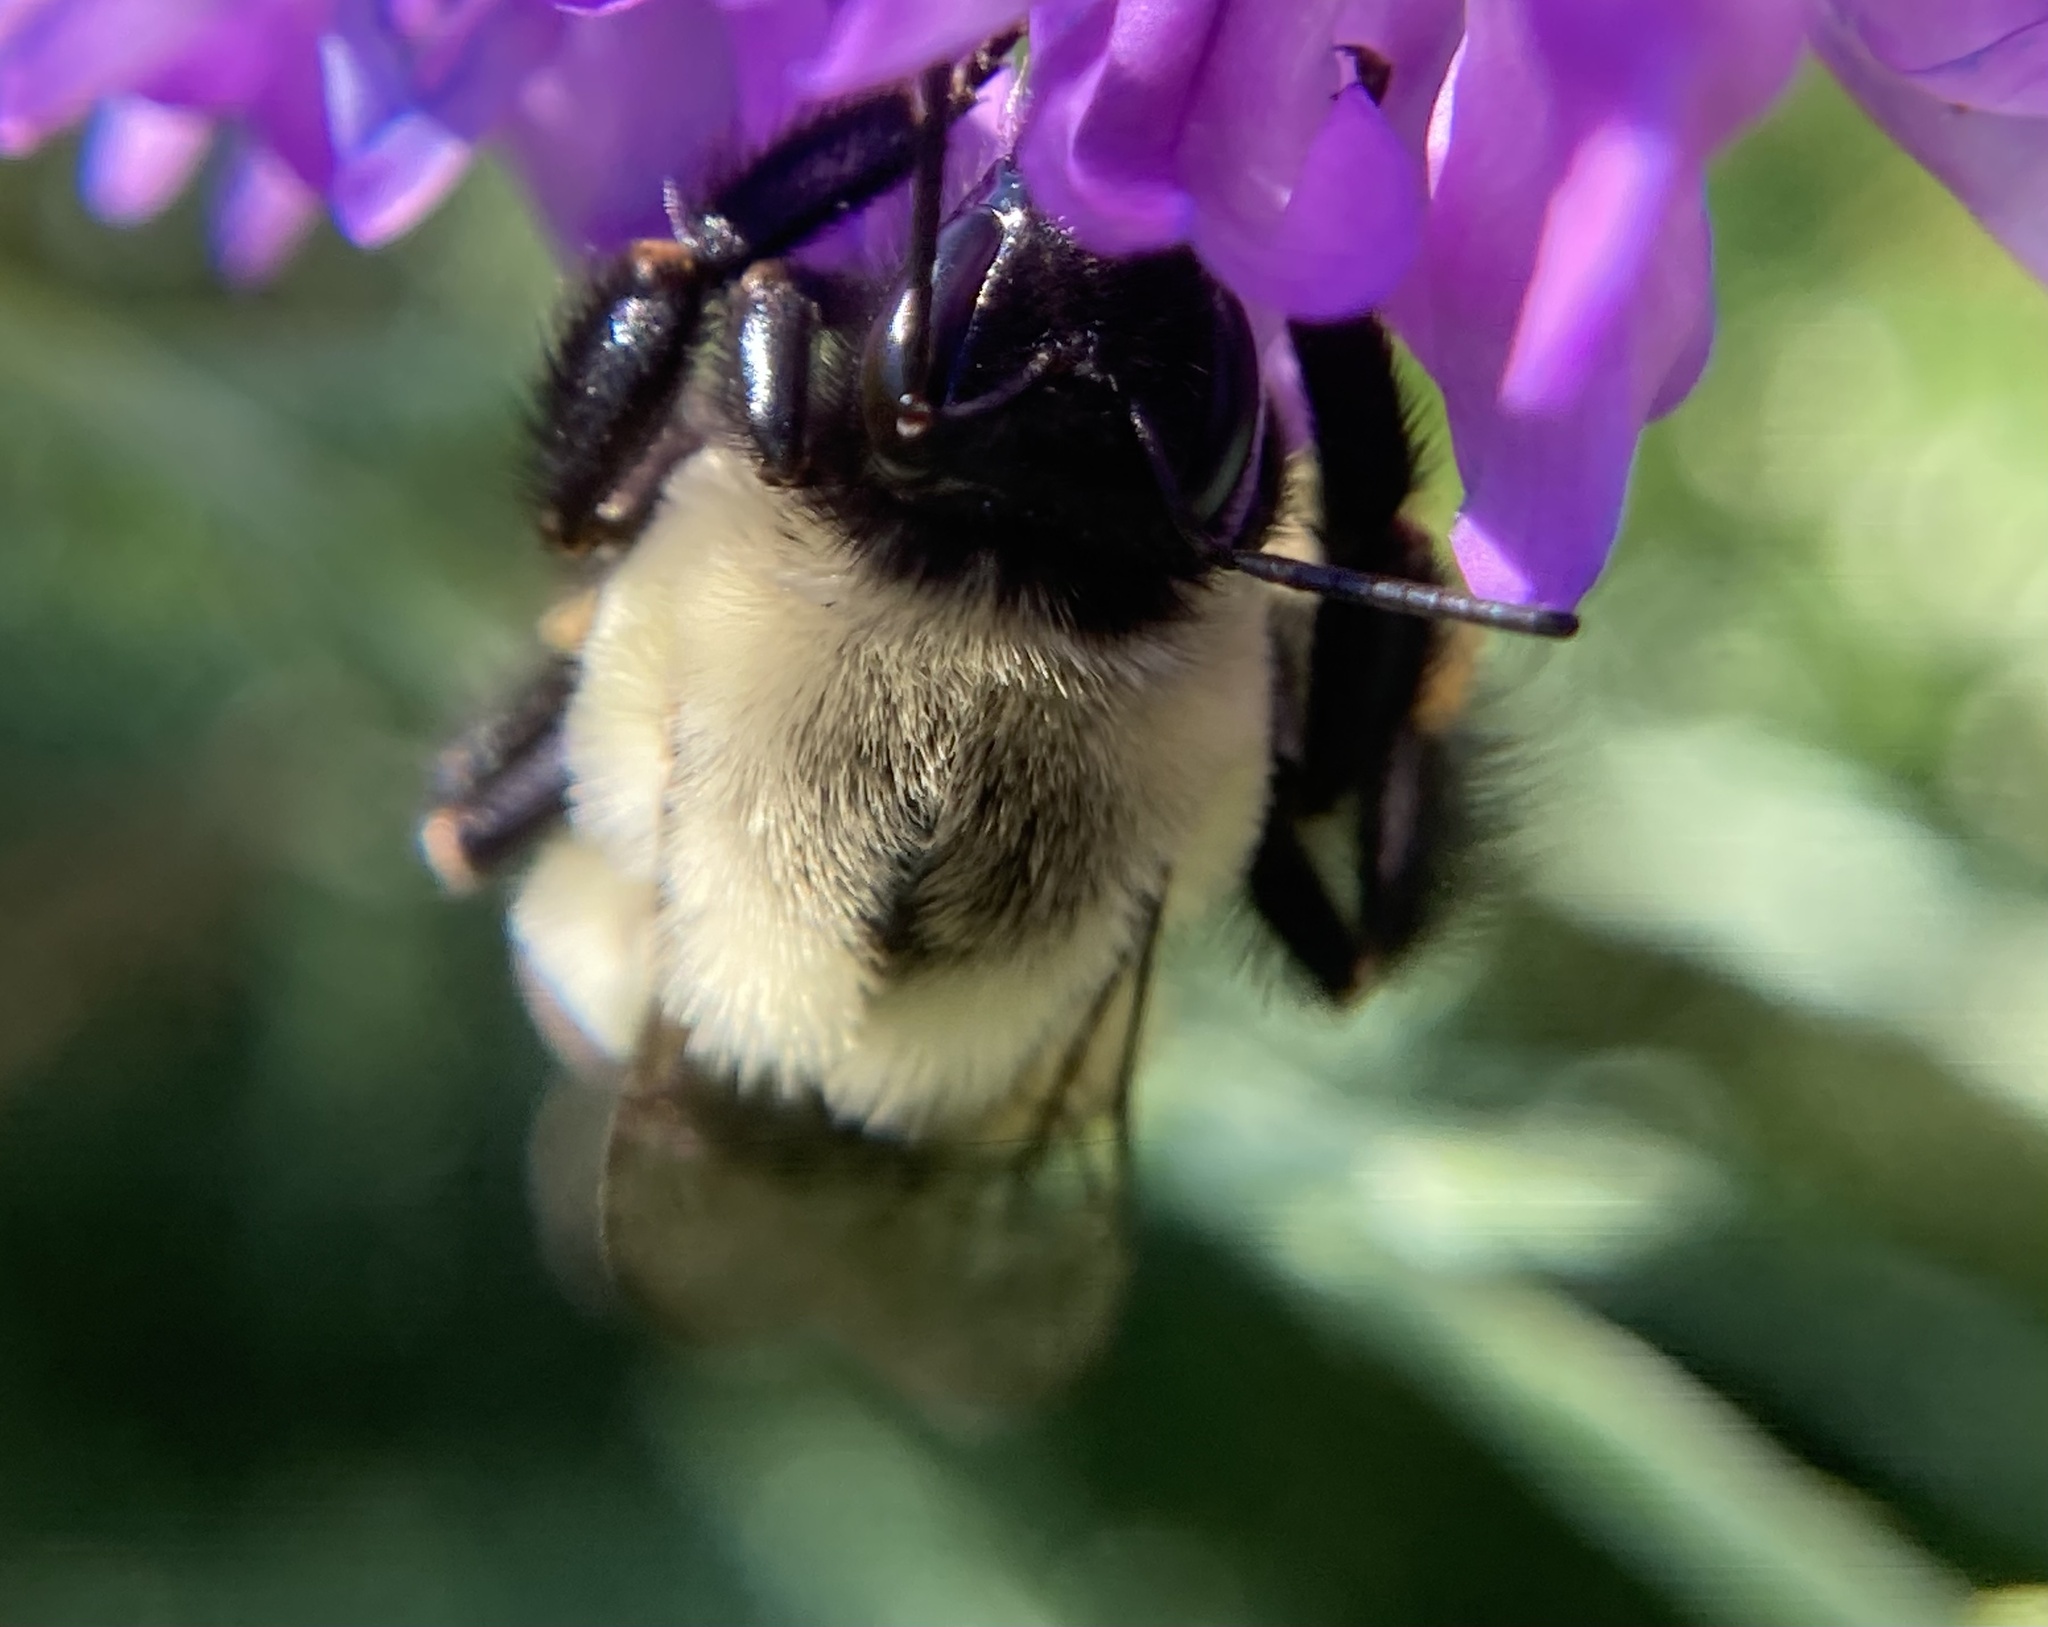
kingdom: Animalia
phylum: Arthropoda
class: Insecta
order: Hymenoptera
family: Apidae
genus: Bombus
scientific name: Bombus impatiens
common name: Common eastern bumble bee
